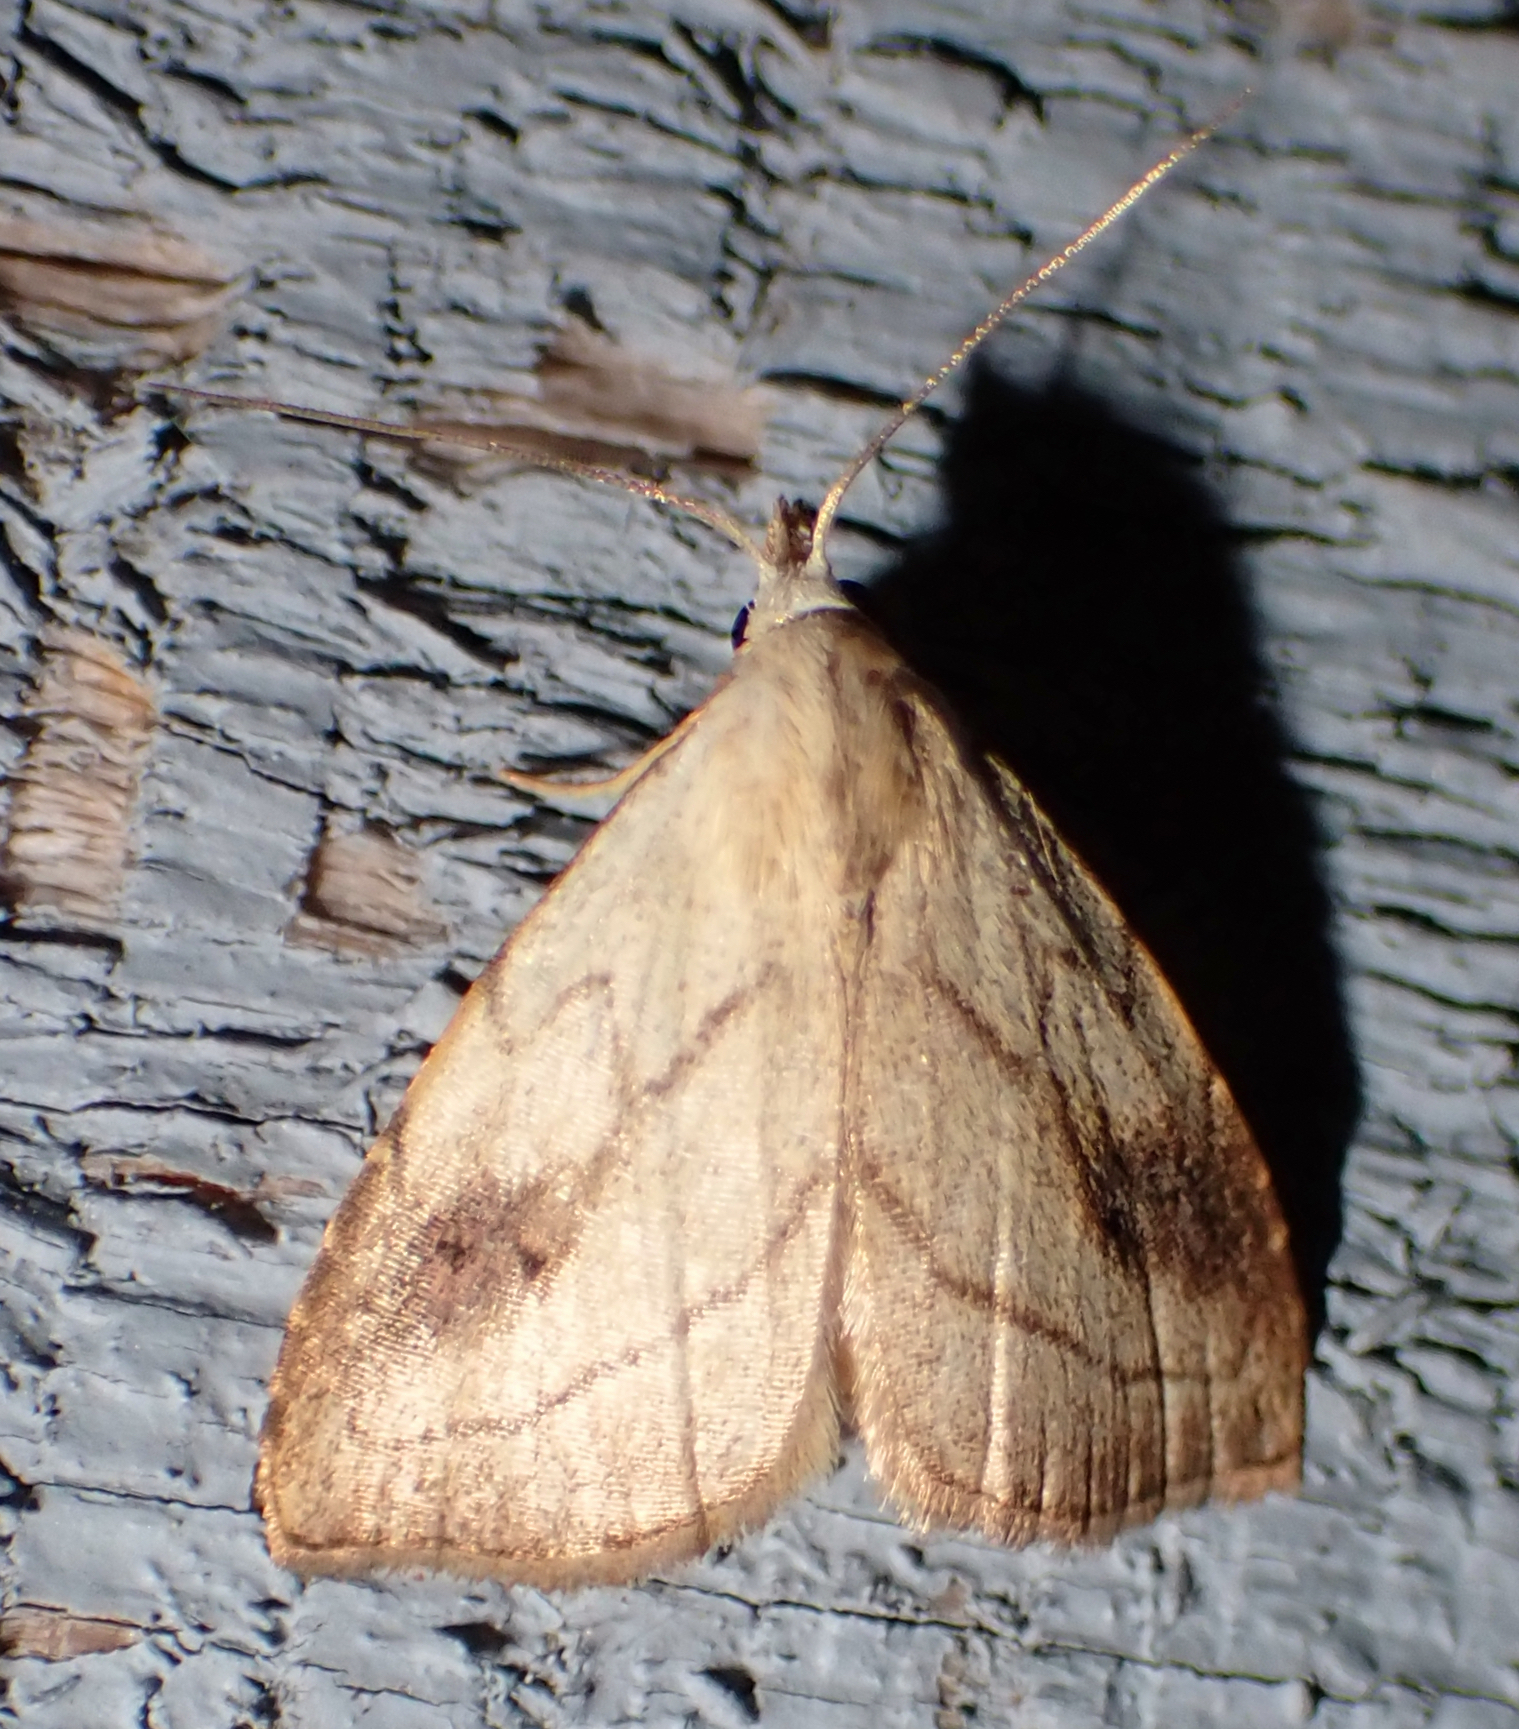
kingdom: Animalia
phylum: Arthropoda
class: Insecta
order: Lepidoptera
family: Erebidae
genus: Rivula
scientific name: Rivula propinqualis
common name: Spotted grass moth
